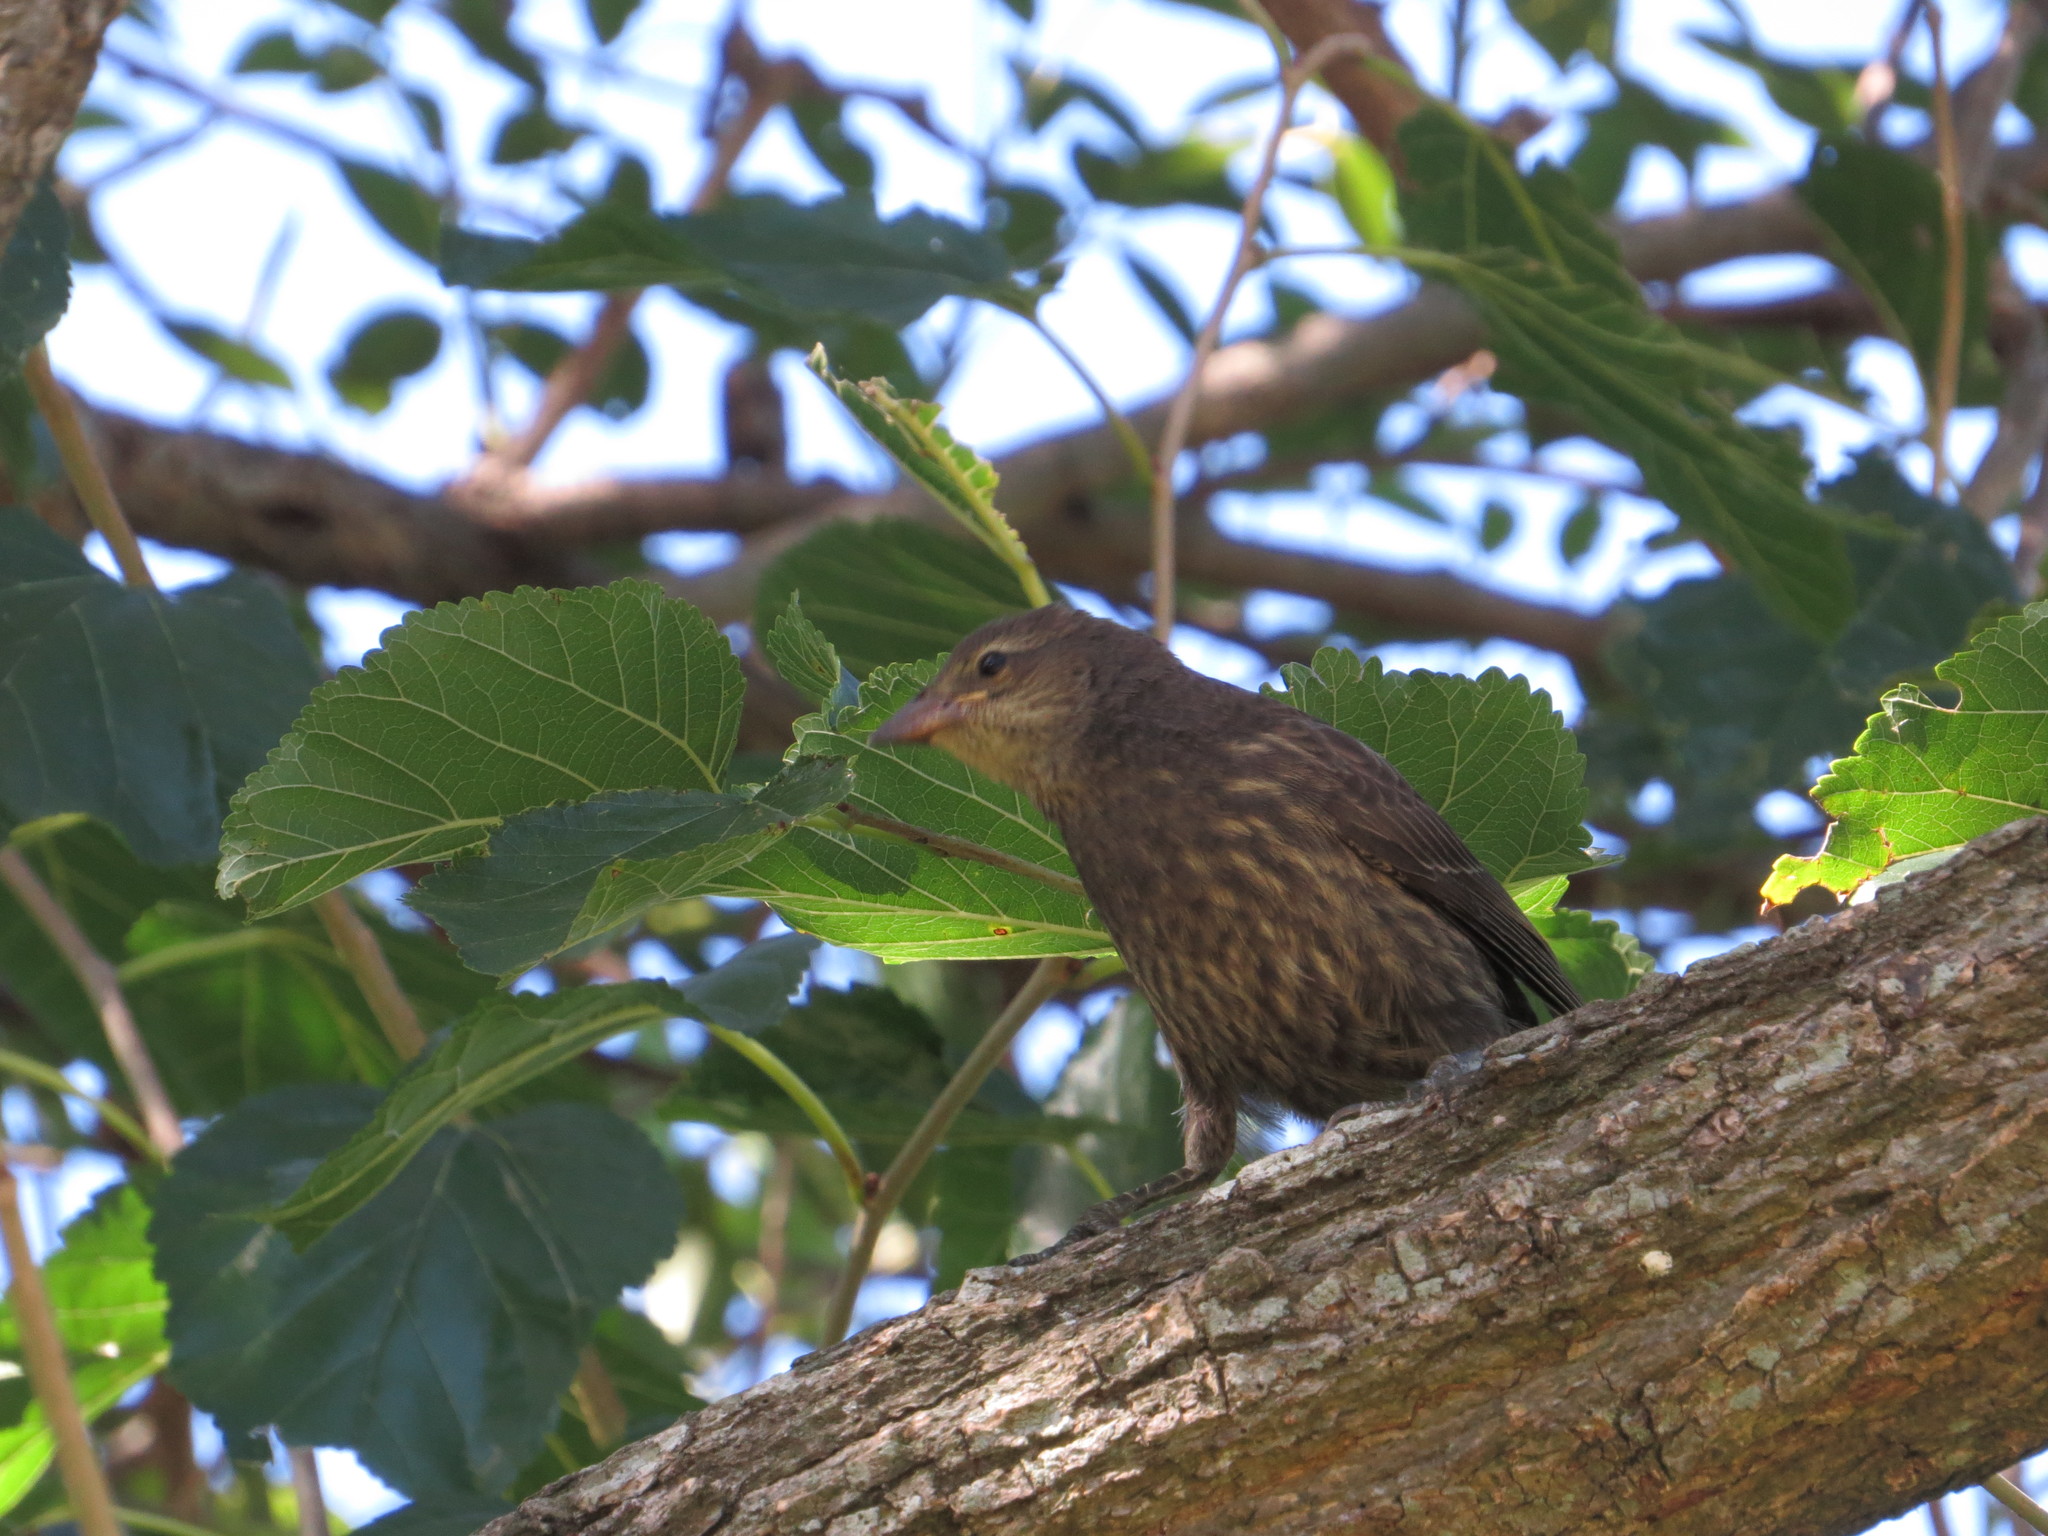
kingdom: Animalia
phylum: Chordata
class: Aves
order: Passeriformes
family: Icteridae
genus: Molothrus
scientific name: Molothrus bonariensis
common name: Shiny cowbird
